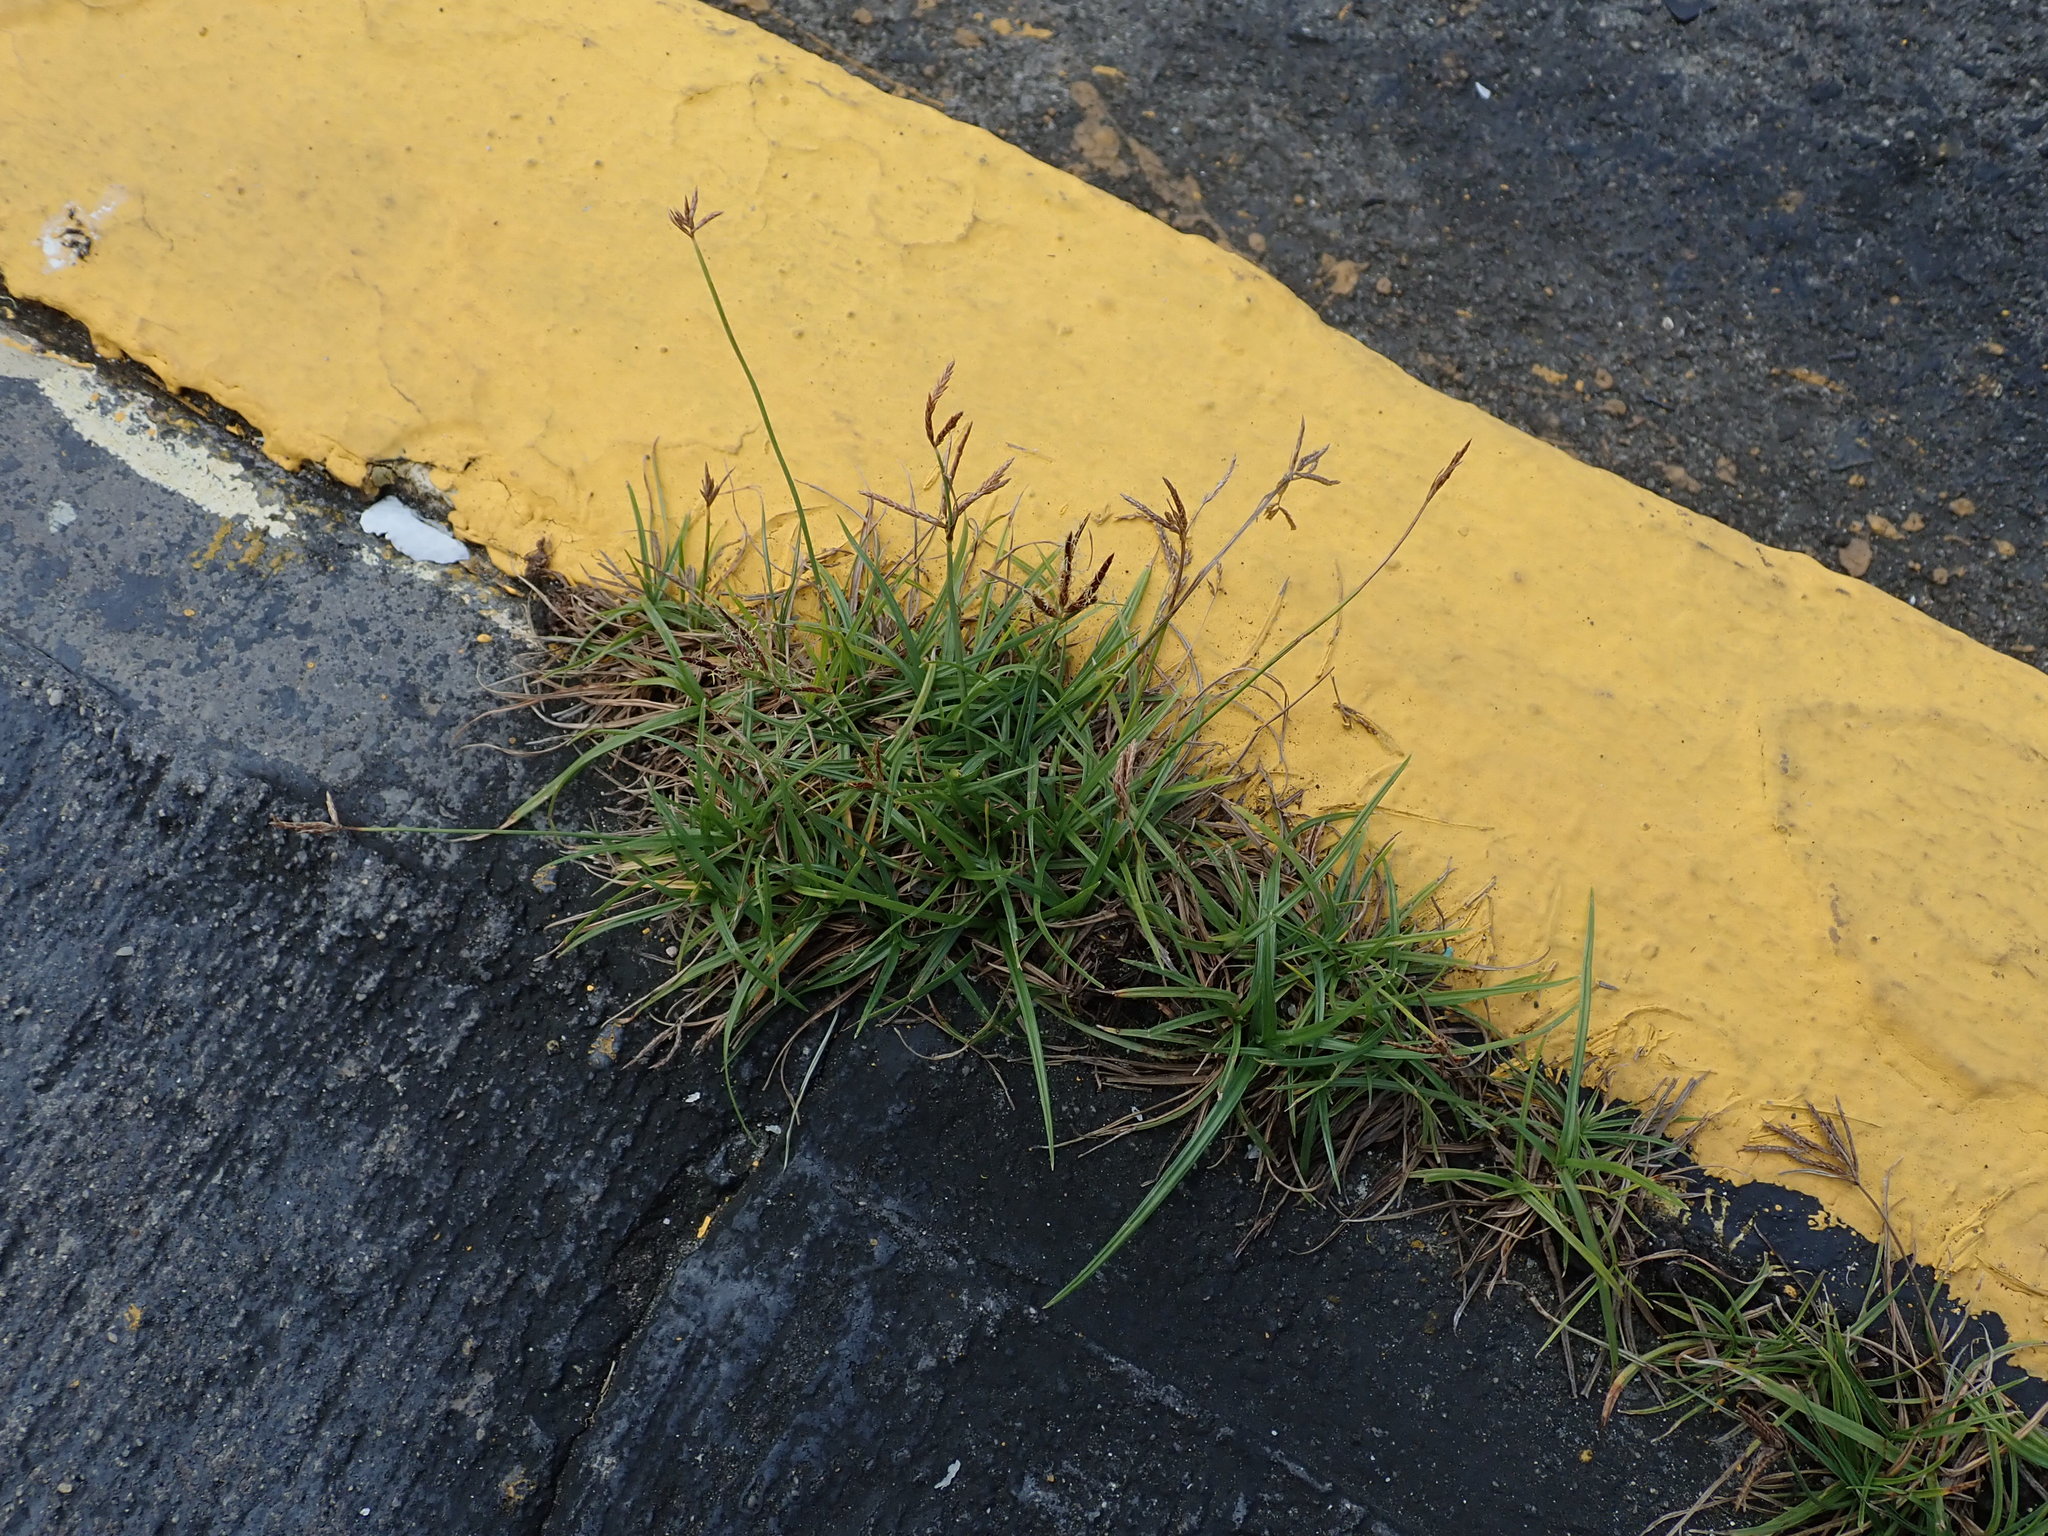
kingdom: Plantae
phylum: Tracheophyta
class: Liliopsida
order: Poales
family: Cyperaceae
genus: Cyperus
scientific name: Cyperus rotundus
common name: Nutgrass
